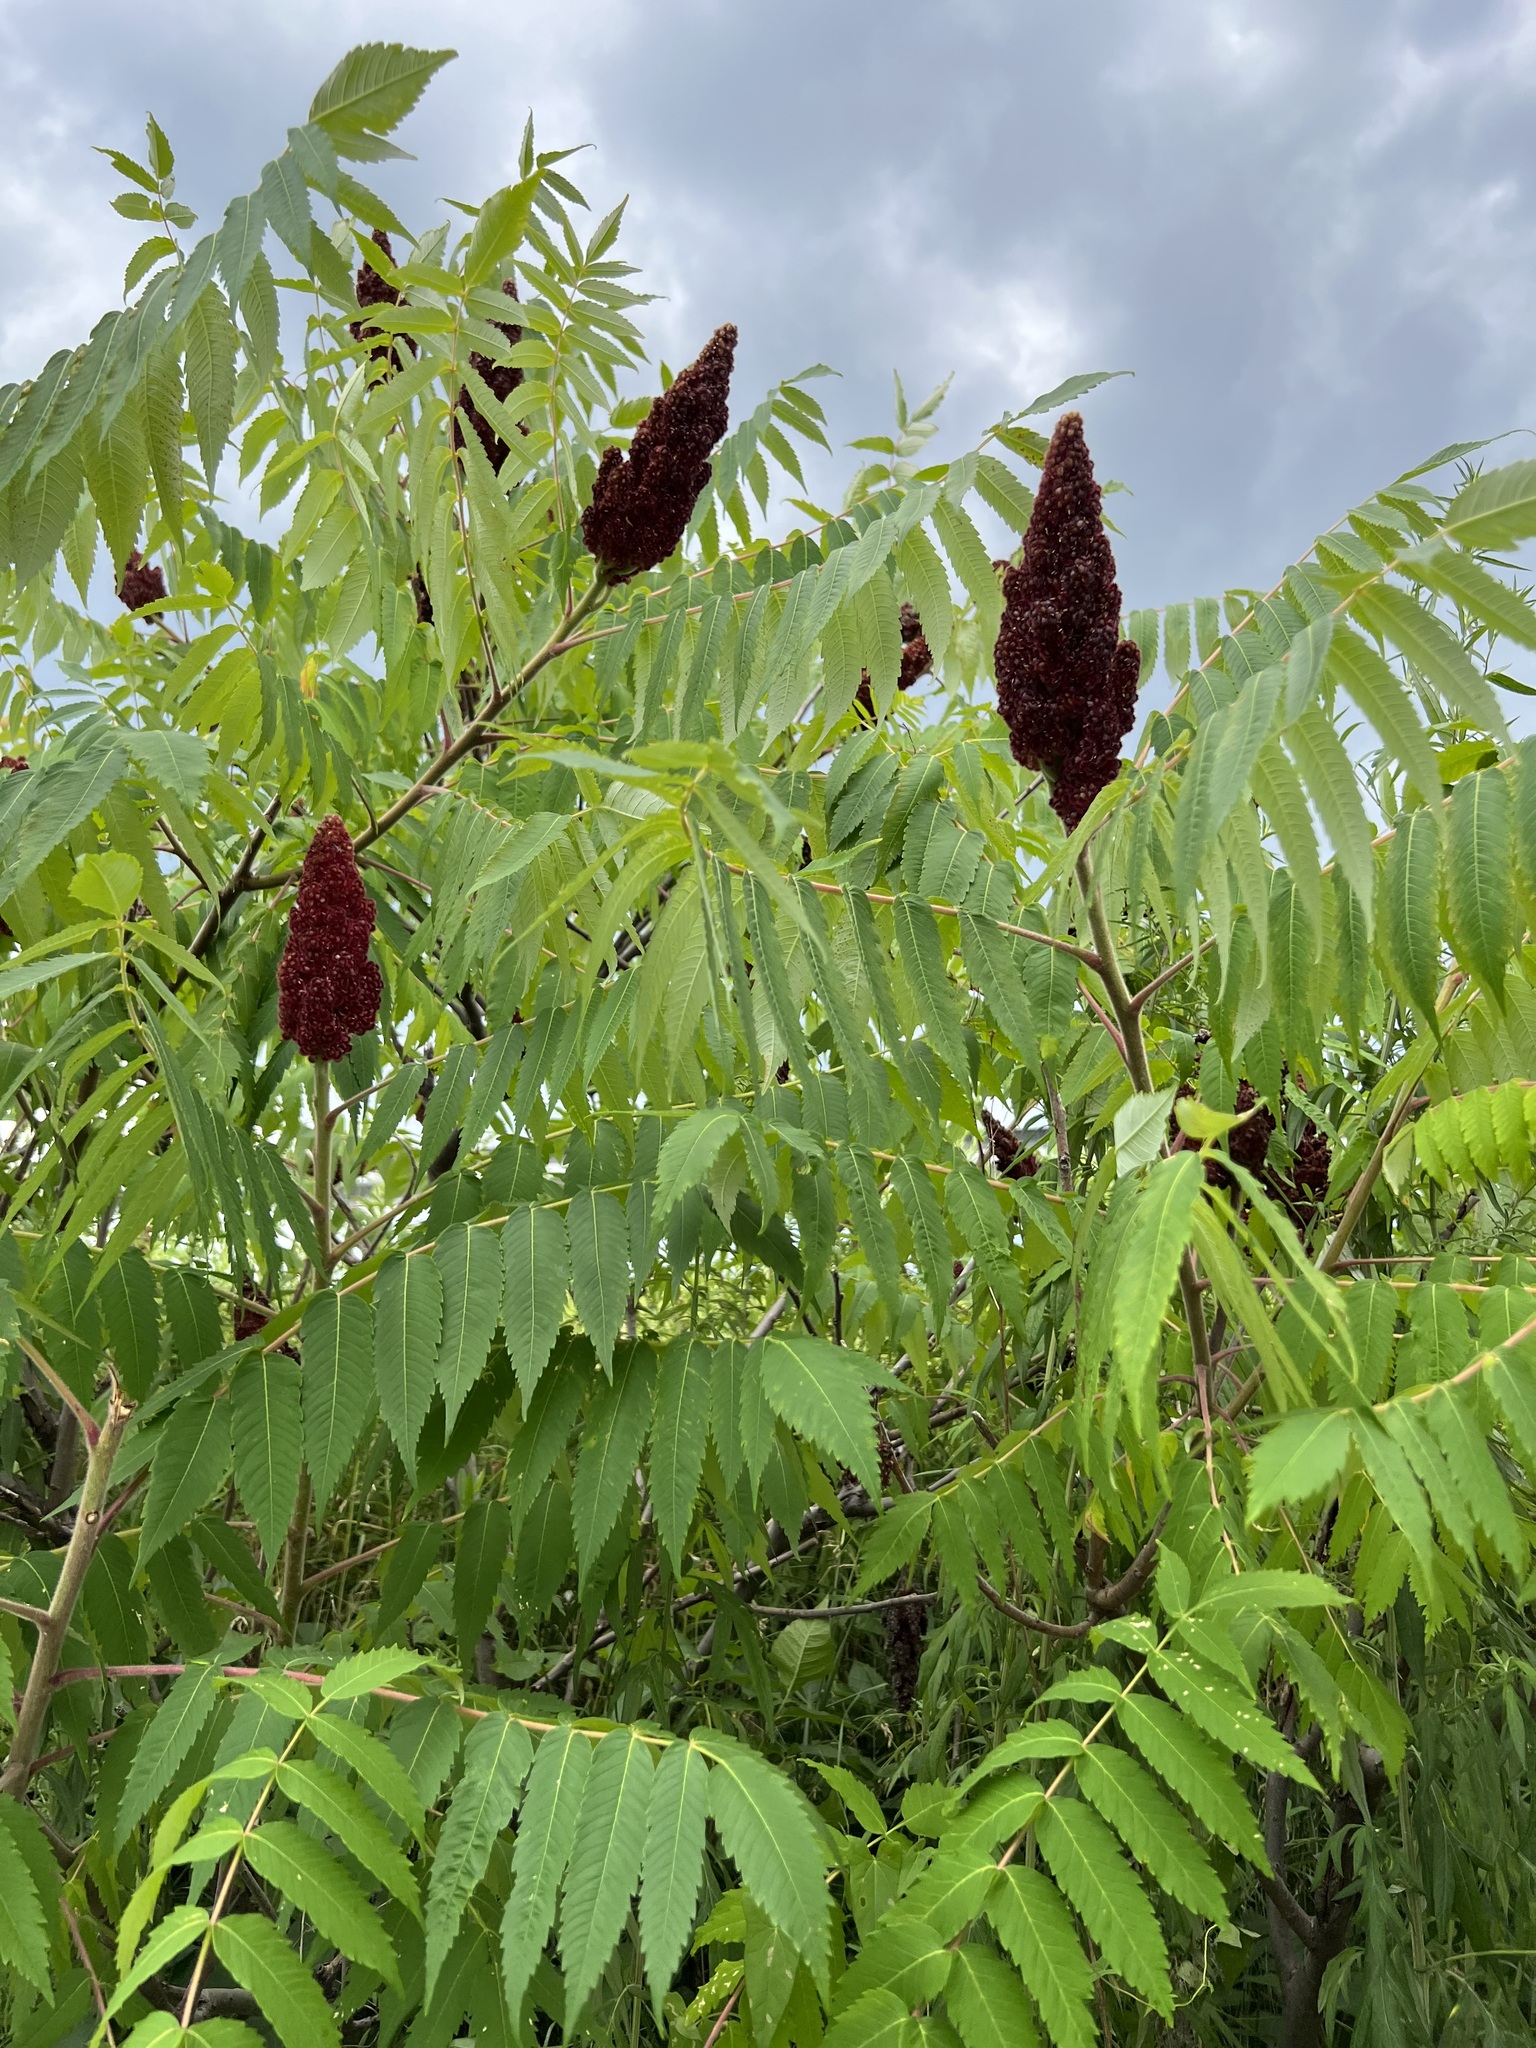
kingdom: Plantae
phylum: Tracheophyta
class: Magnoliopsida
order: Sapindales
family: Anacardiaceae
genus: Rhus
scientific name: Rhus typhina
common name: Staghorn sumac
